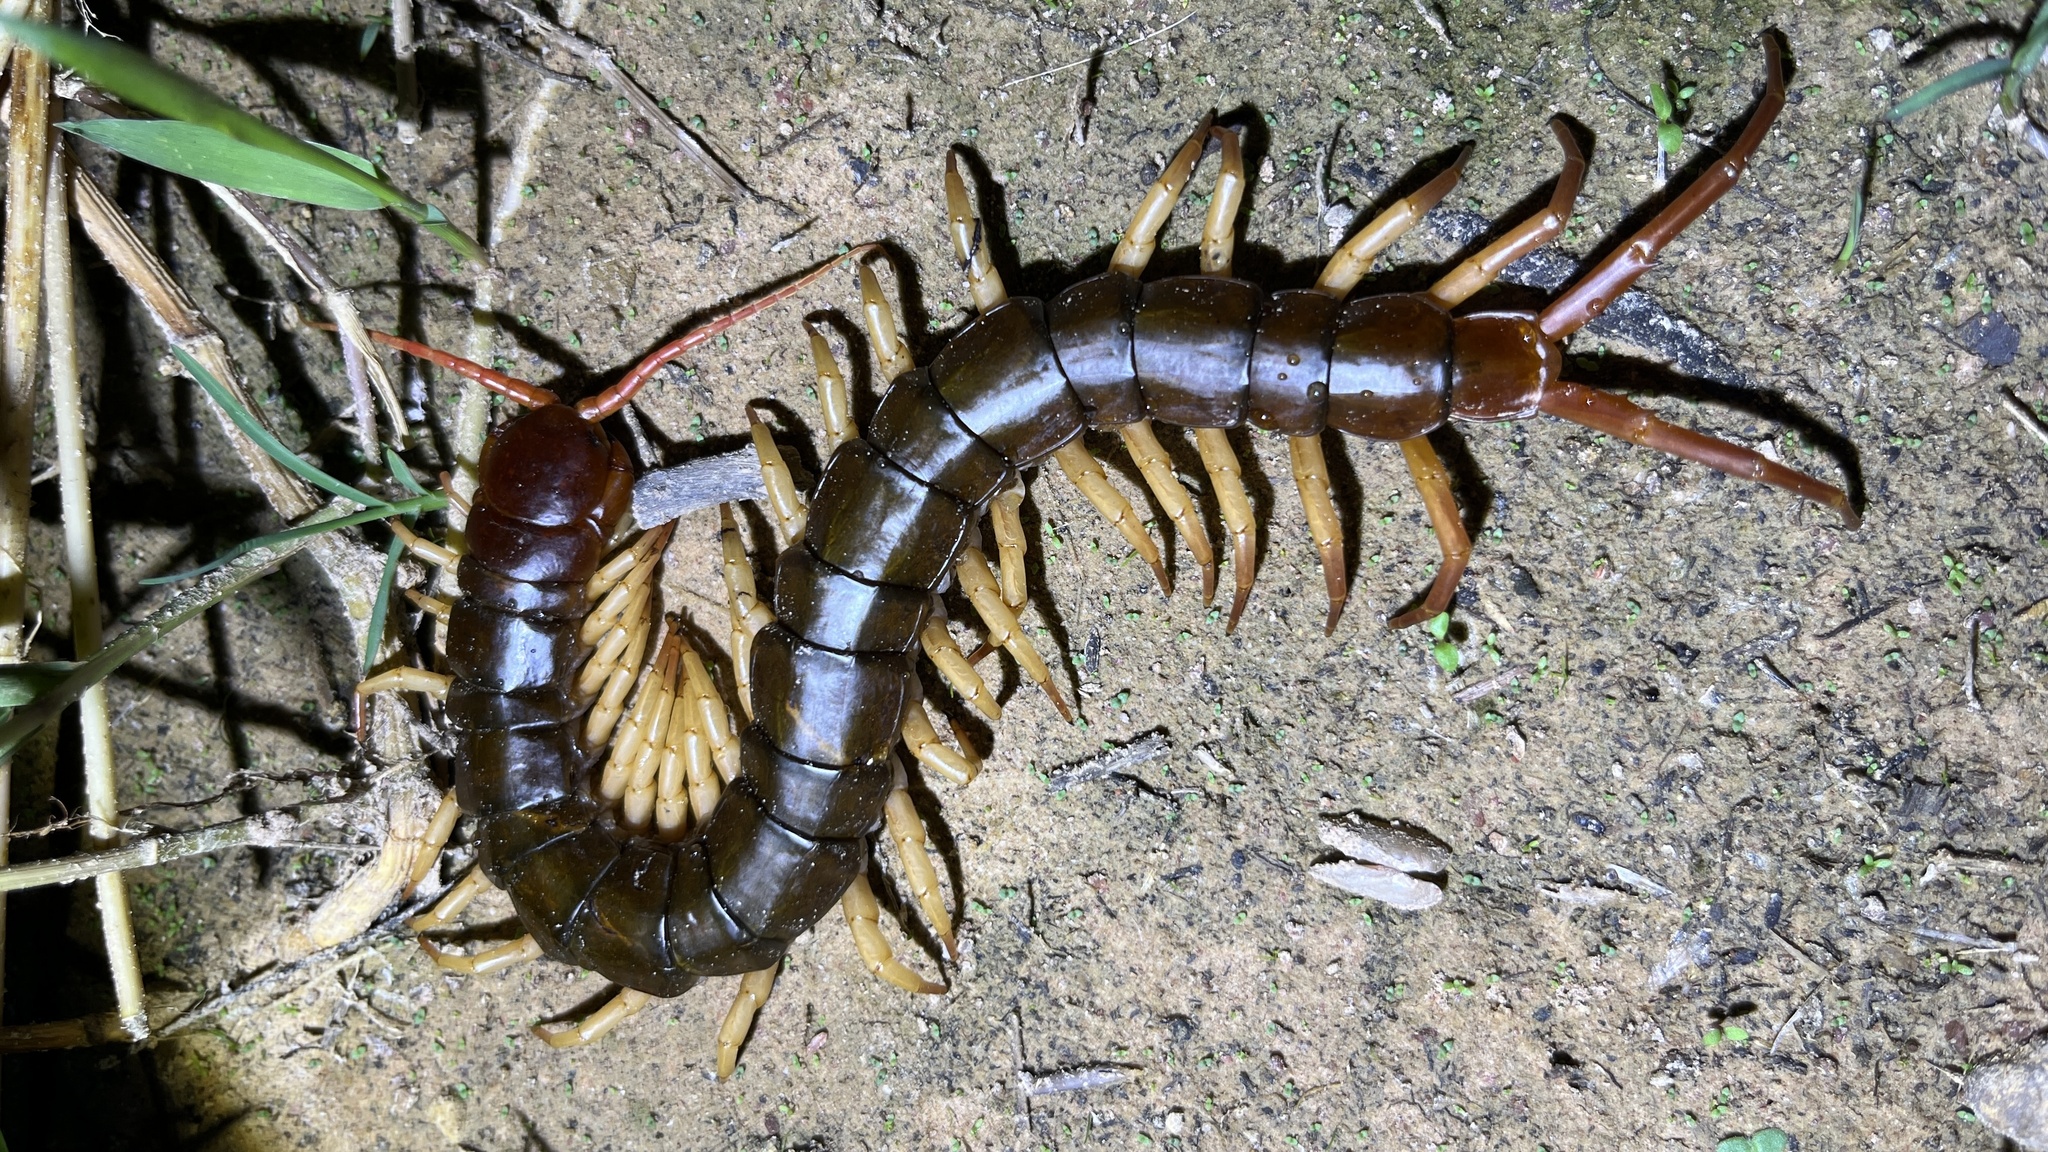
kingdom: Animalia
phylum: Arthropoda
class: Chilopoda
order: Scolopendromorpha
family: Scolopendridae
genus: Scolopendra
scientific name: Scolopendra dehaani
